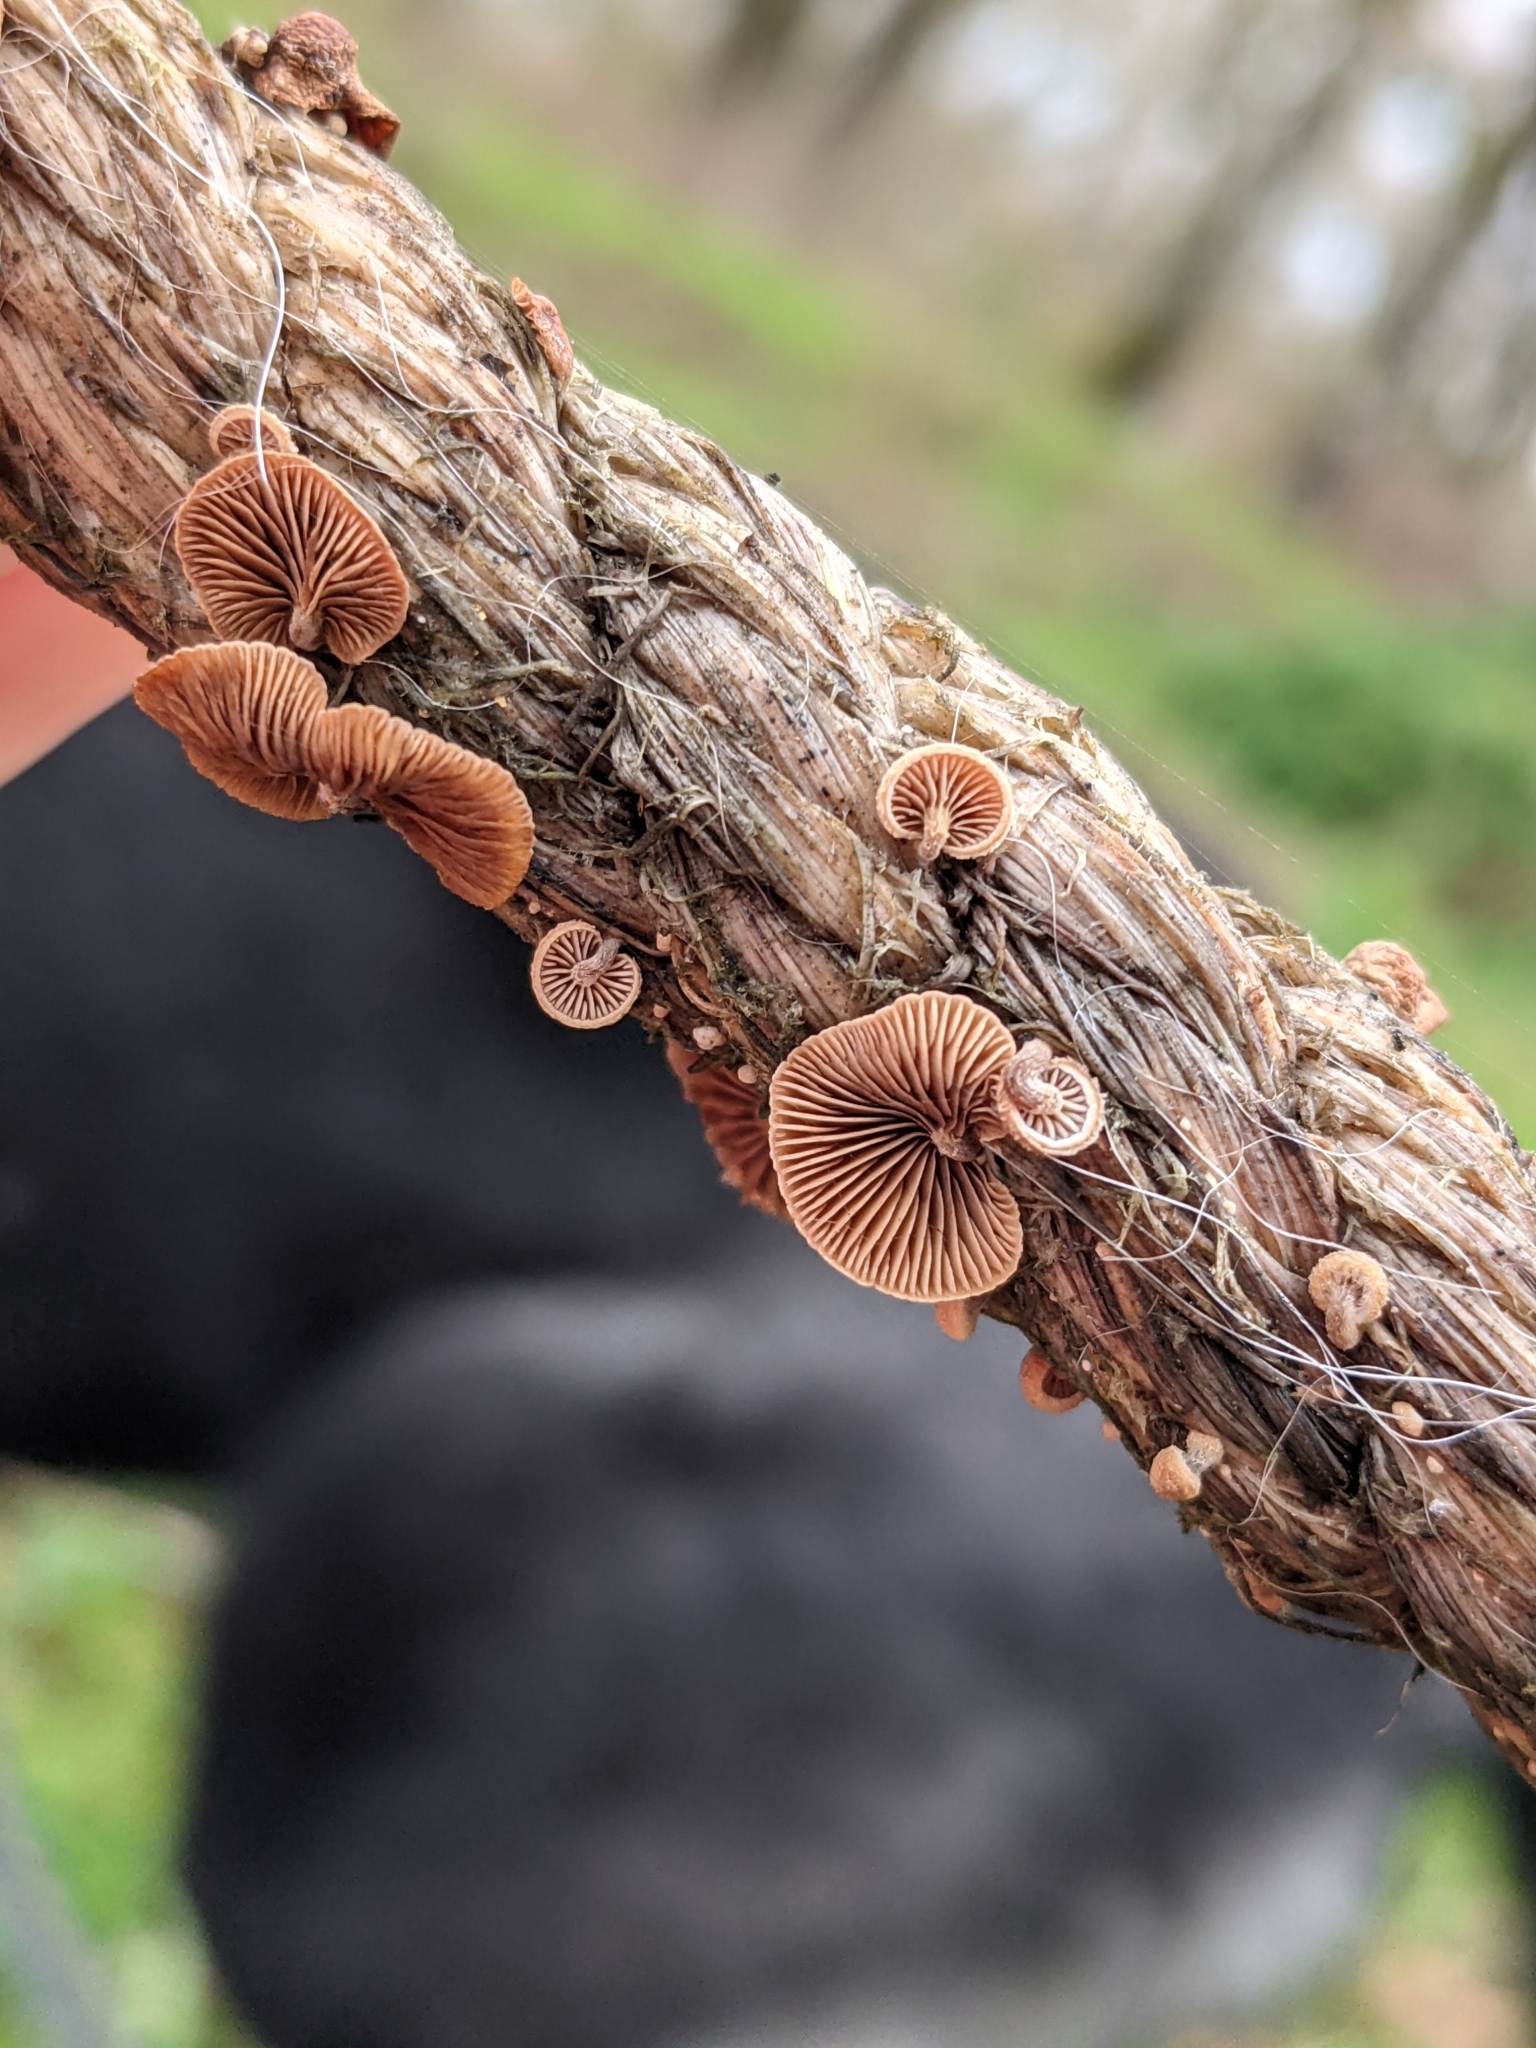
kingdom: Fungi
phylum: Basidiomycota
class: Agaricomycetes
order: Agaricales
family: Strophariaceae
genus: Deconica
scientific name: Deconica horizontalis
